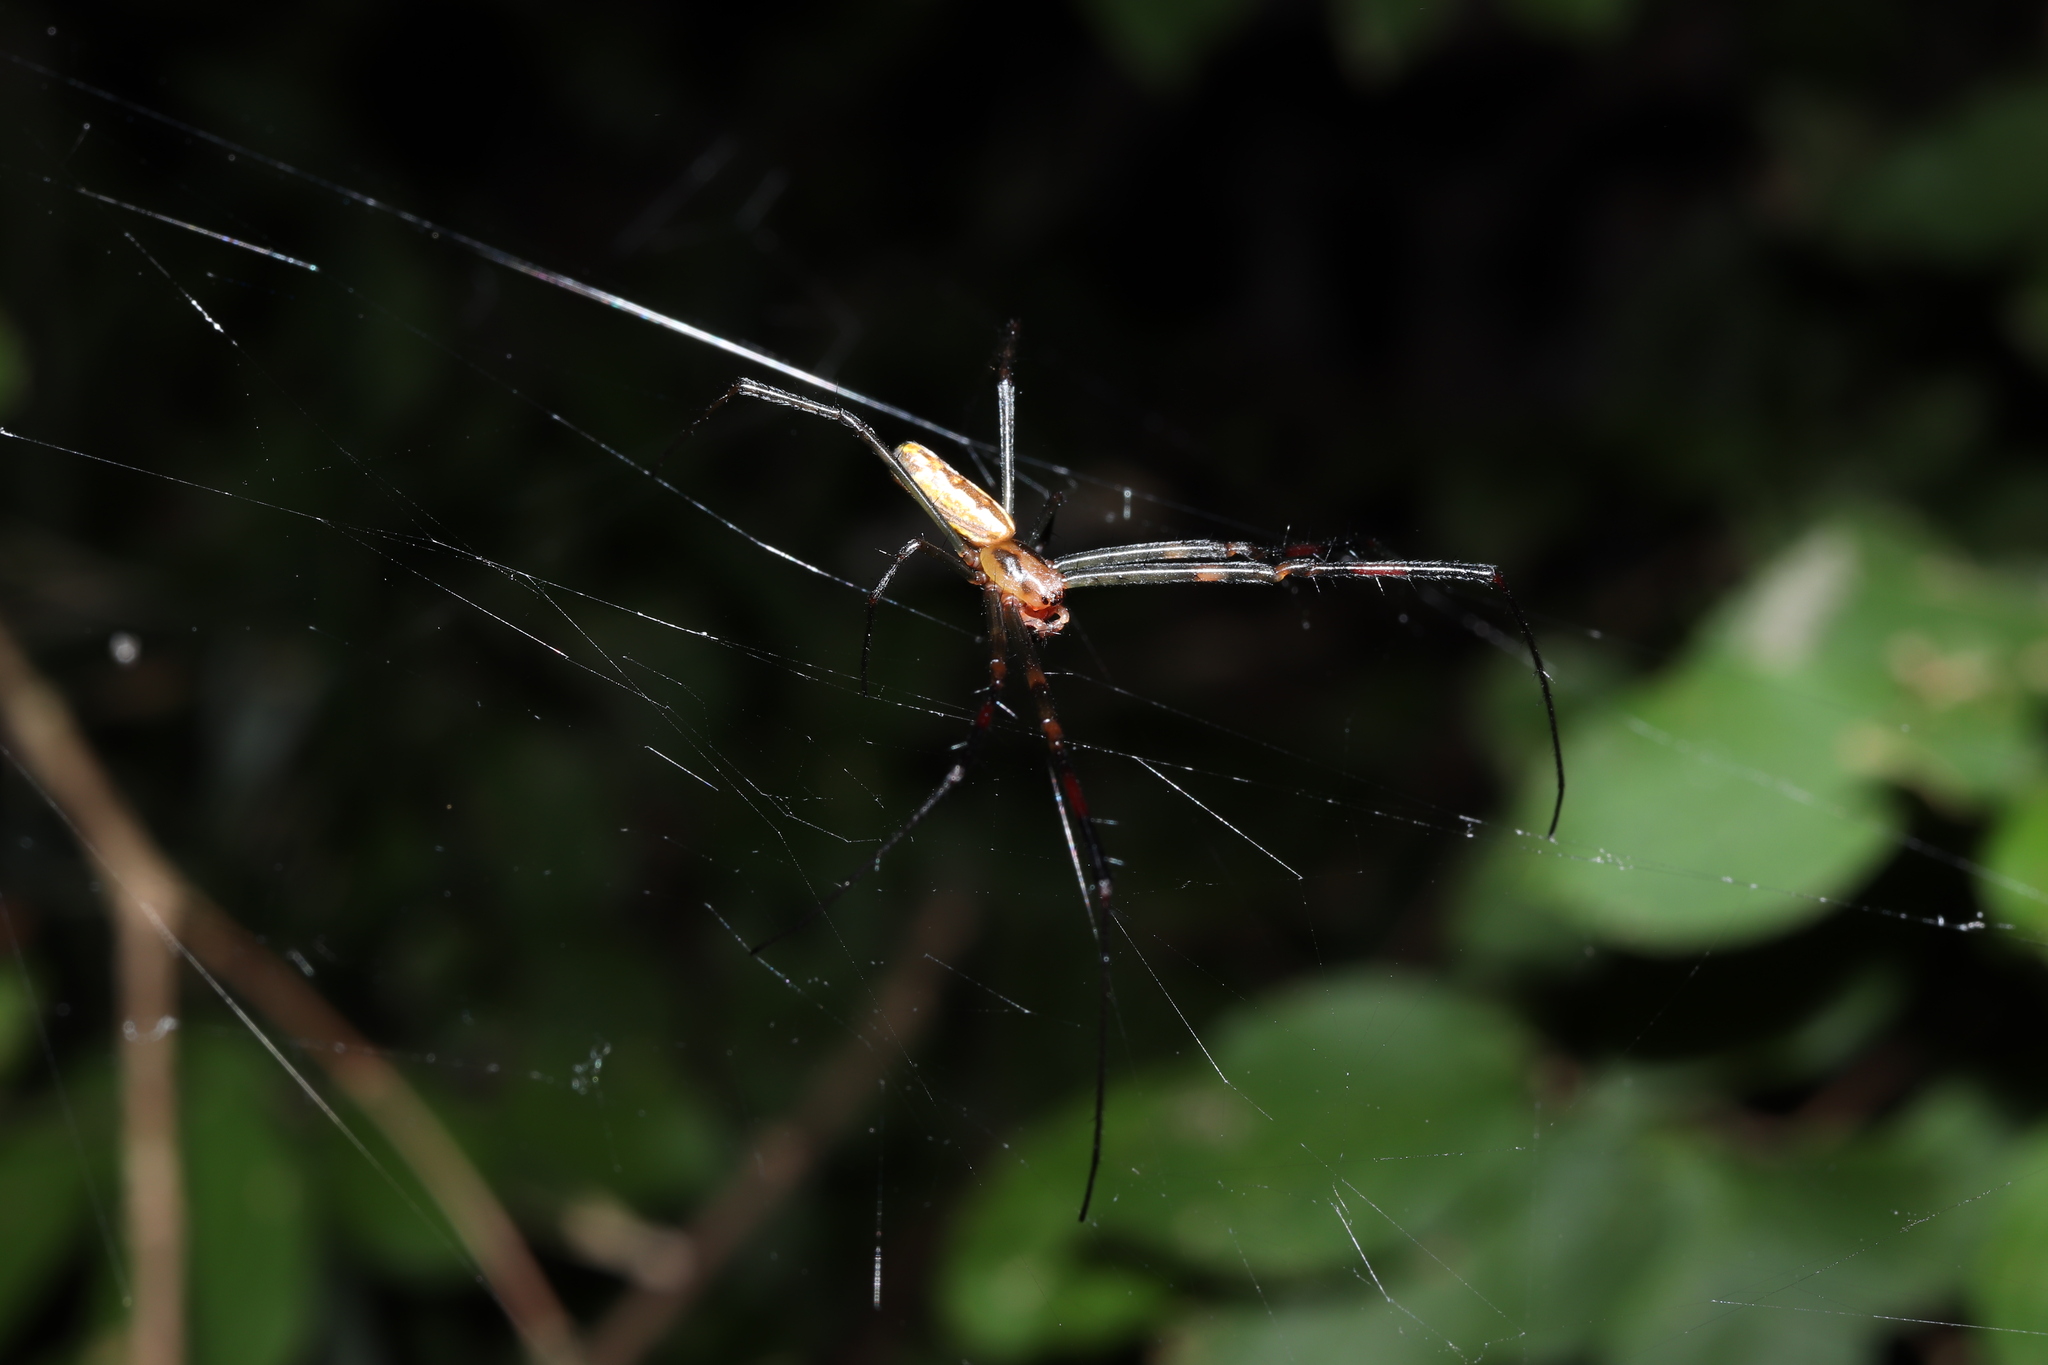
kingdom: Animalia
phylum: Arthropoda
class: Arachnida
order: Araneae
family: Araneidae
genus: Trichonephila
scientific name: Trichonephila clavata
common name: Jorō spider
